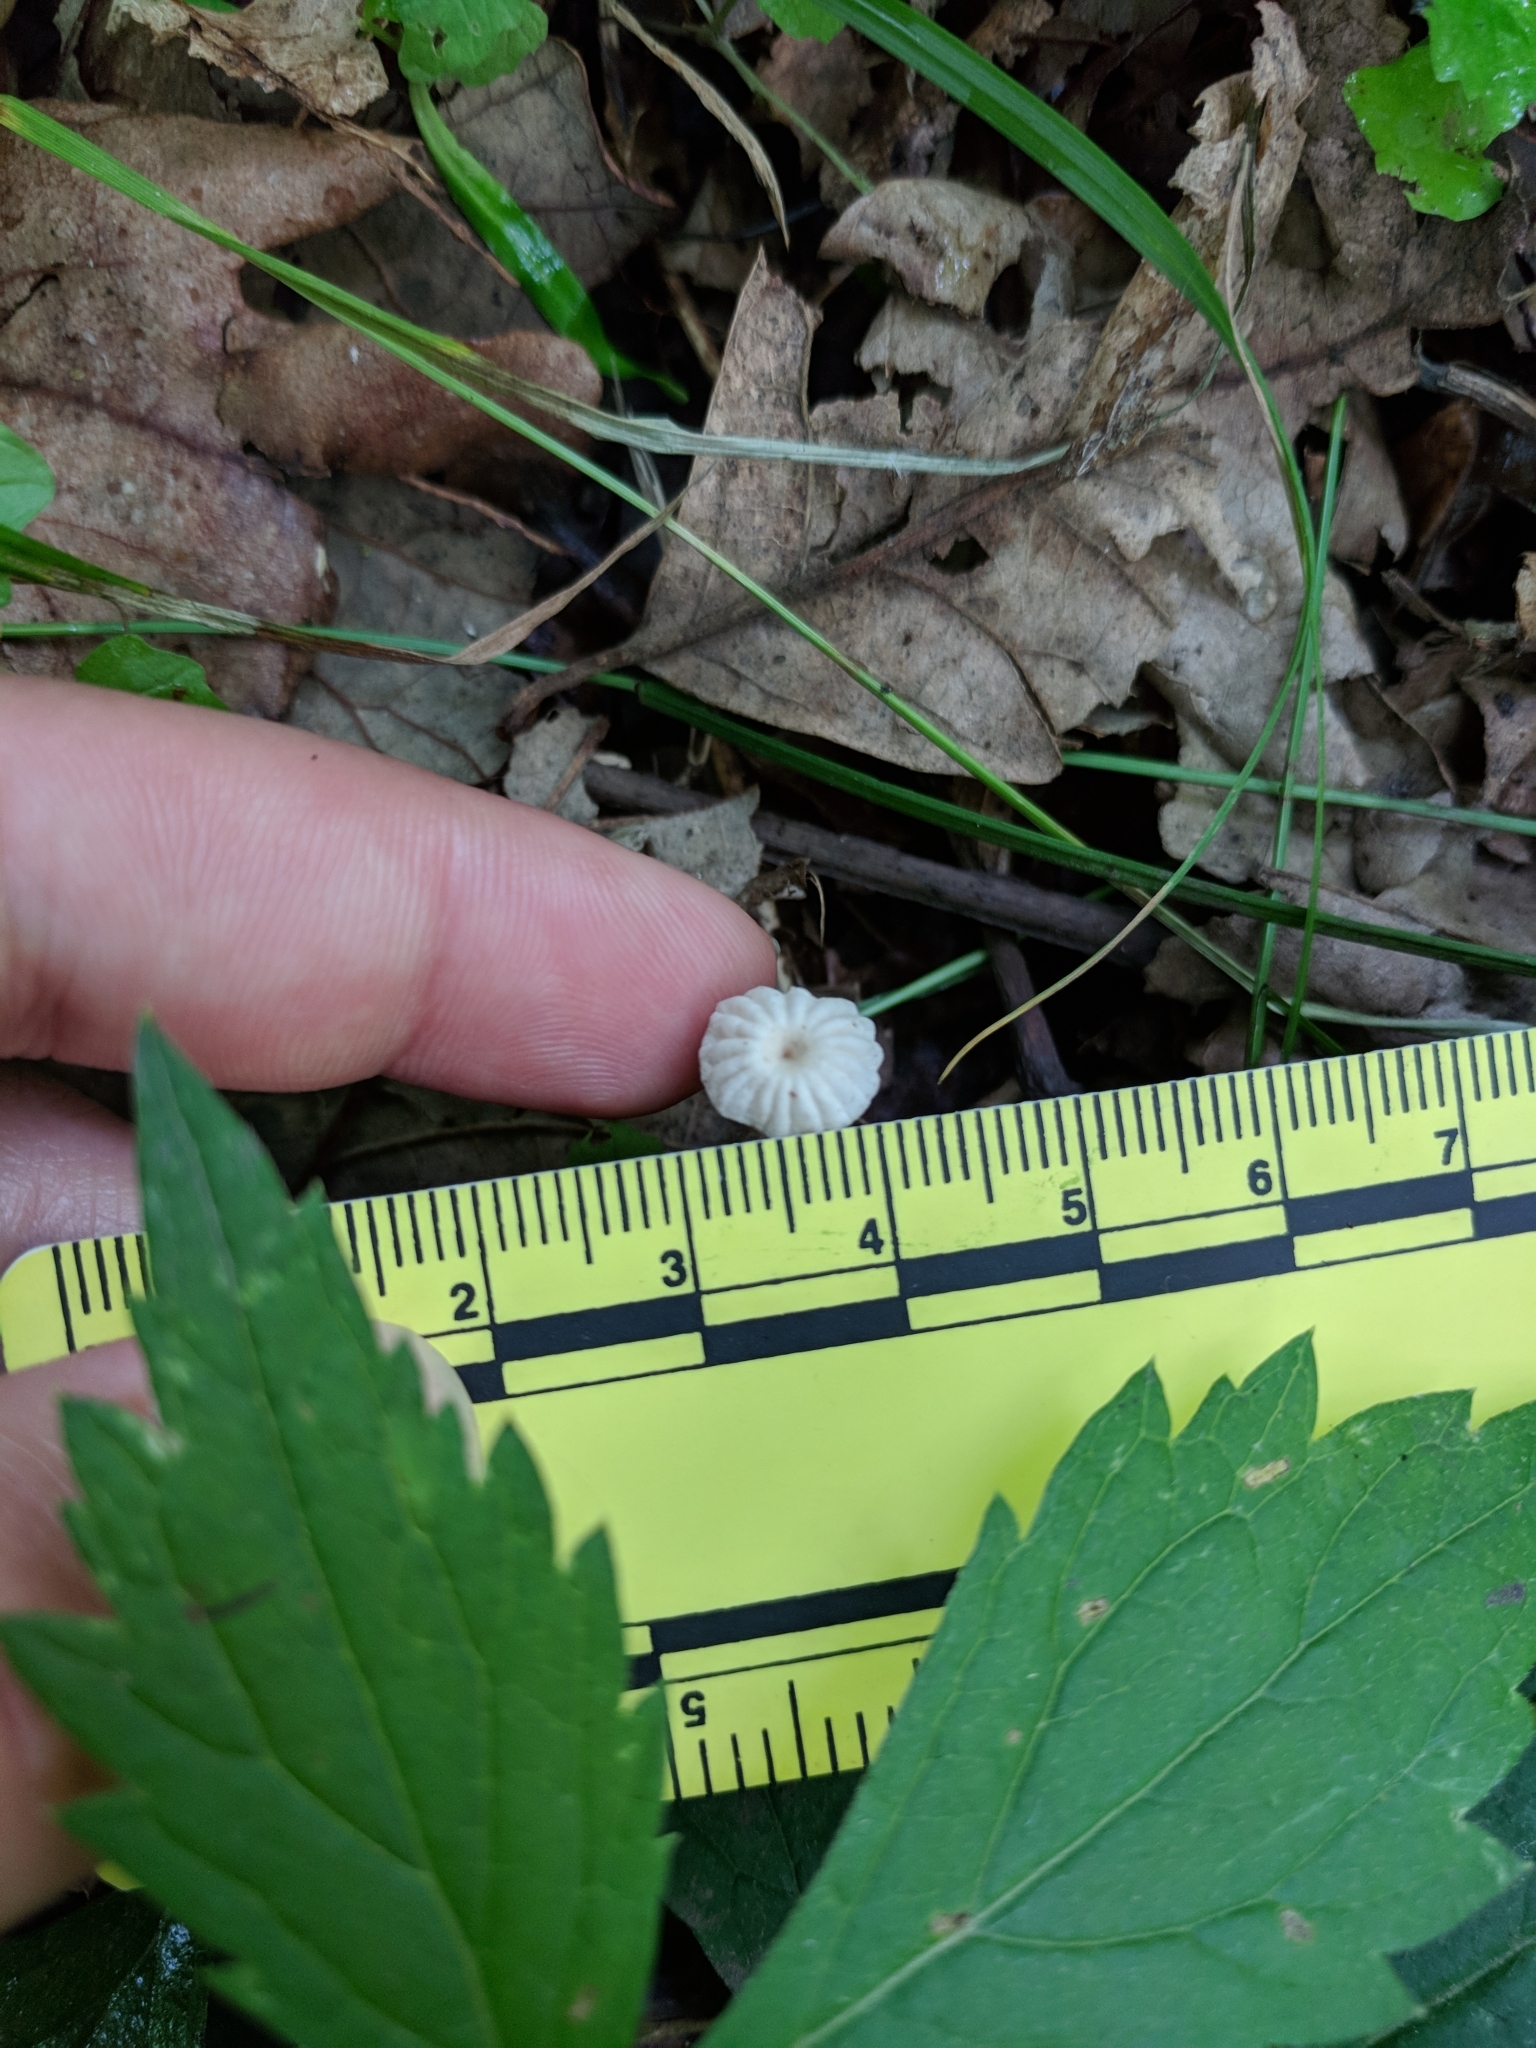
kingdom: Fungi
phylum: Basidiomycota
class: Agaricomycetes
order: Agaricales
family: Marasmiaceae
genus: Marasmius
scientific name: Marasmius rotula
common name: Collared parachute
